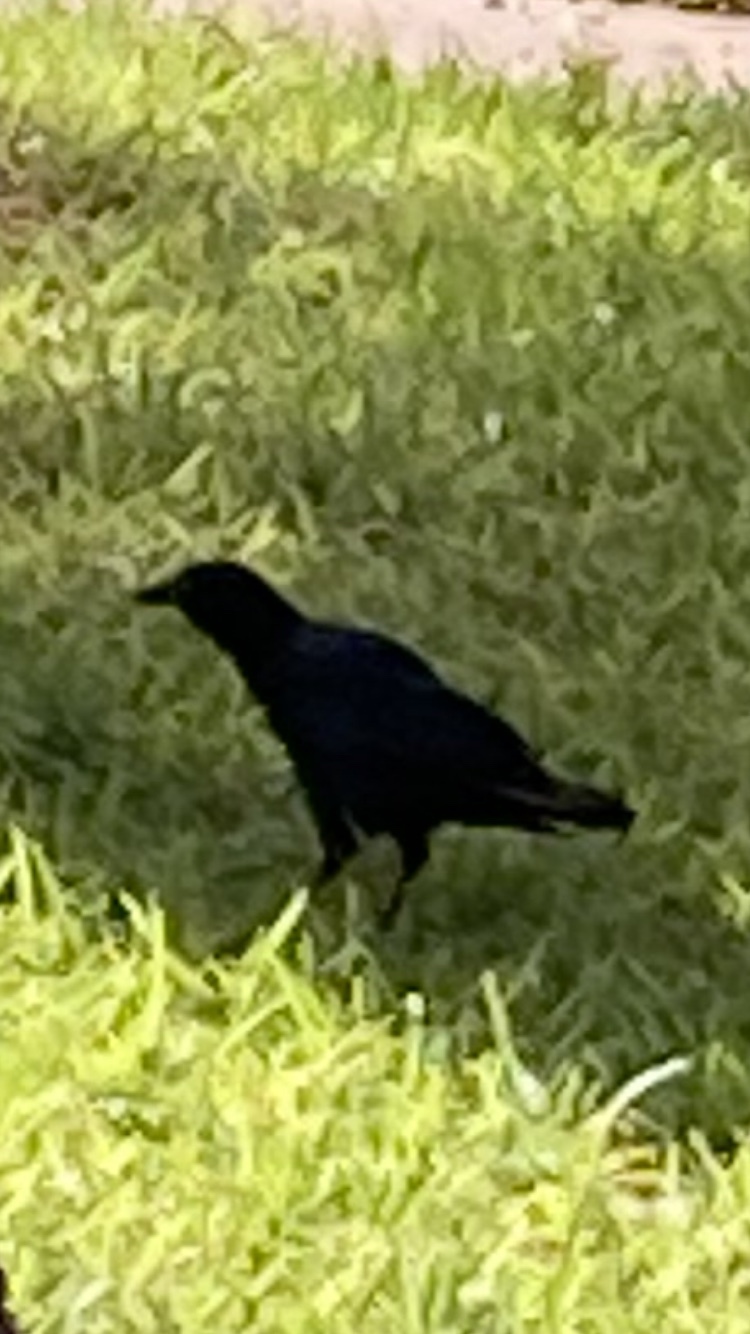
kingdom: Animalia
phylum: Chordata
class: Aves
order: Passeriformes
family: Icteridae
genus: Quiscalus
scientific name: Quiscalus mexicanus
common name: Great-tailed grackle
